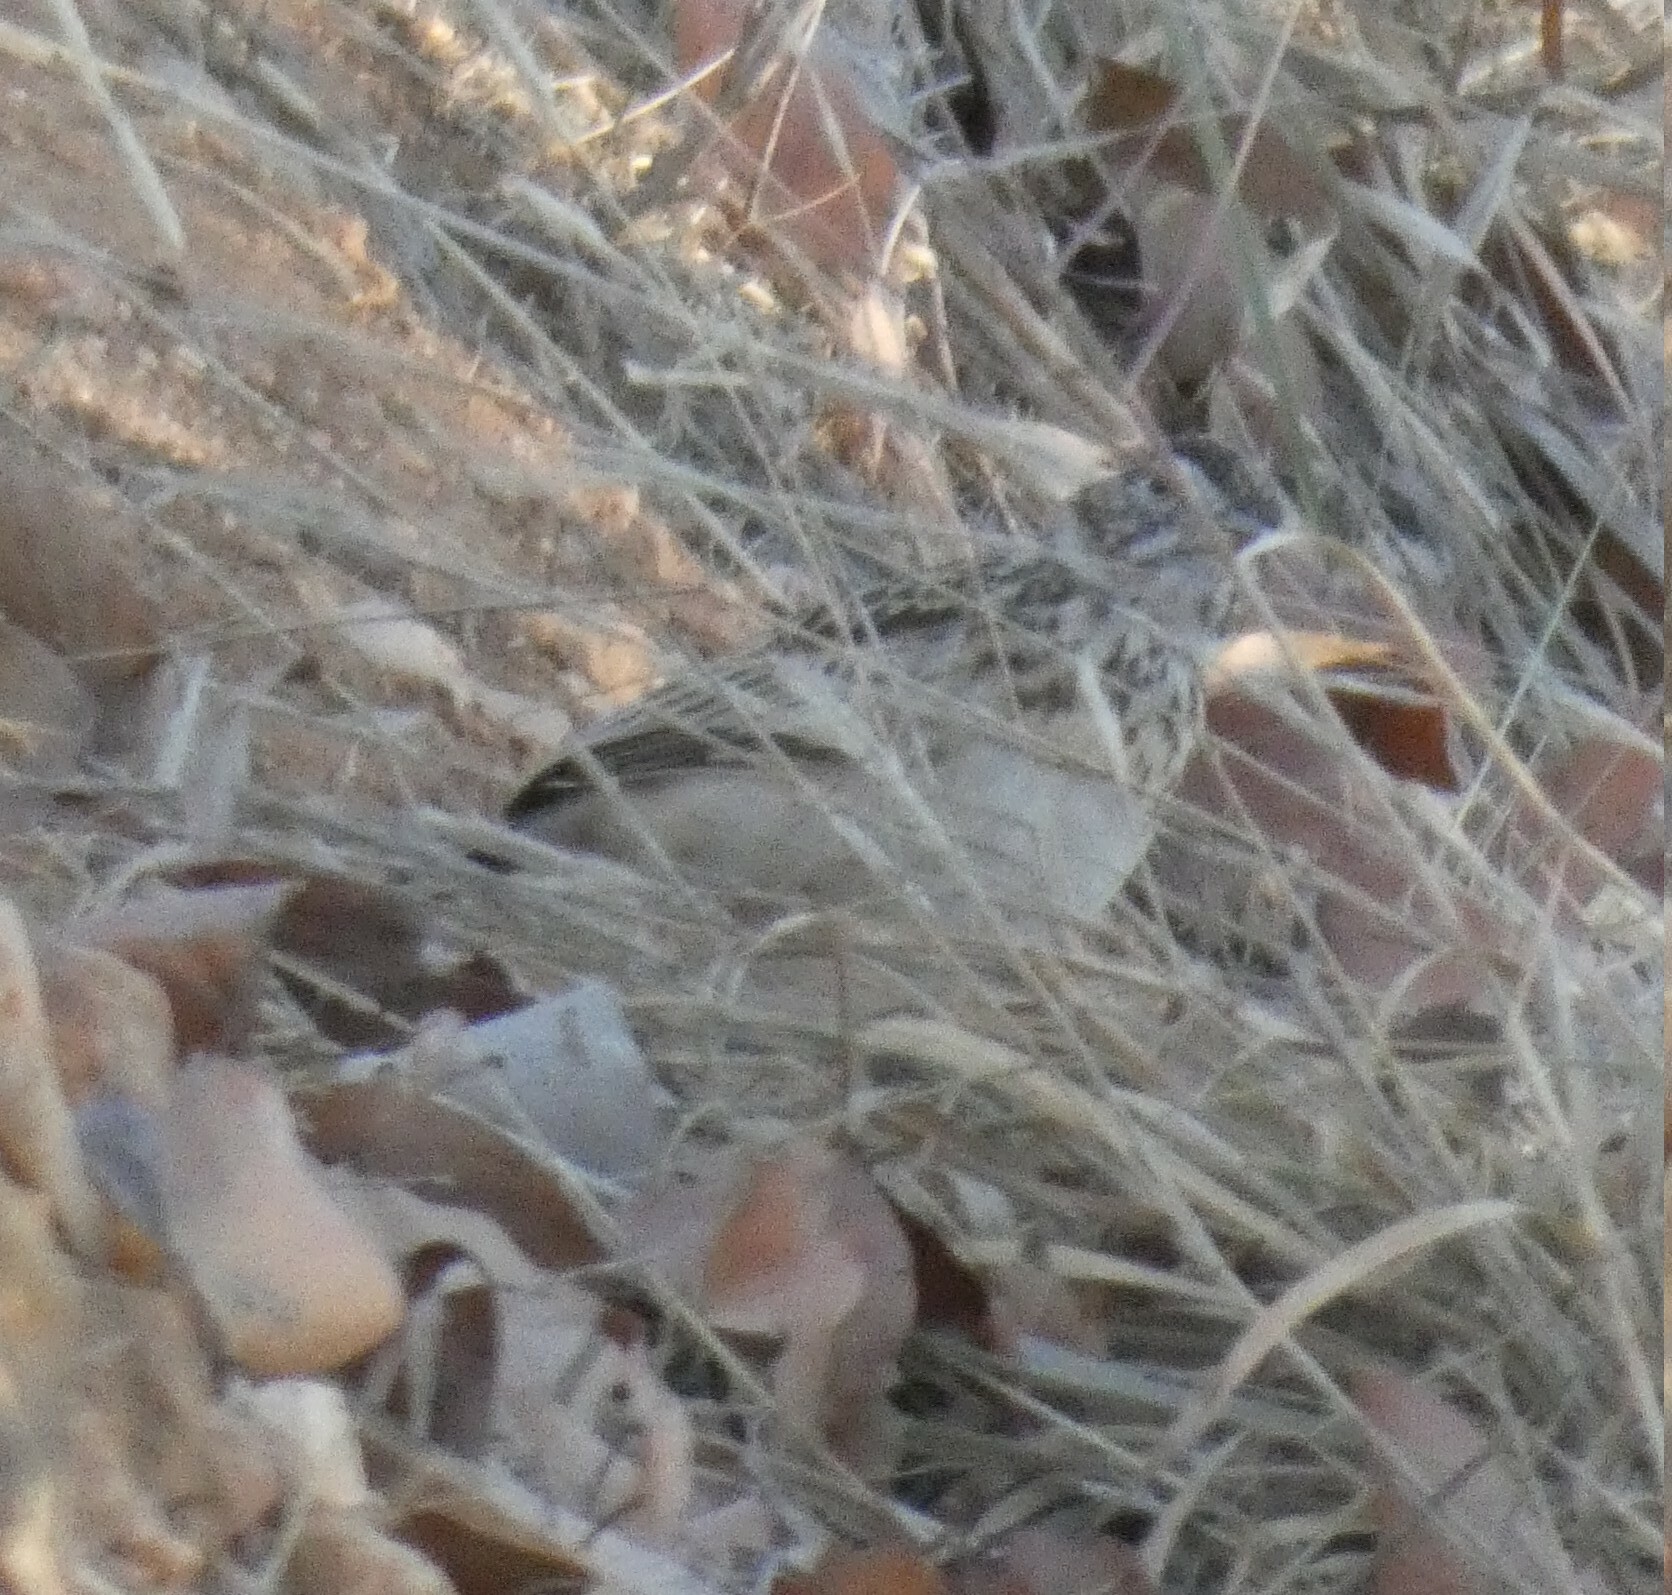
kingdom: Animalia
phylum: Chordata
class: Aves
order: Passeriformes
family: Alaudidae
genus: Calendulauda
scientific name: Calendulauda sabota
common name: Sabota lark
